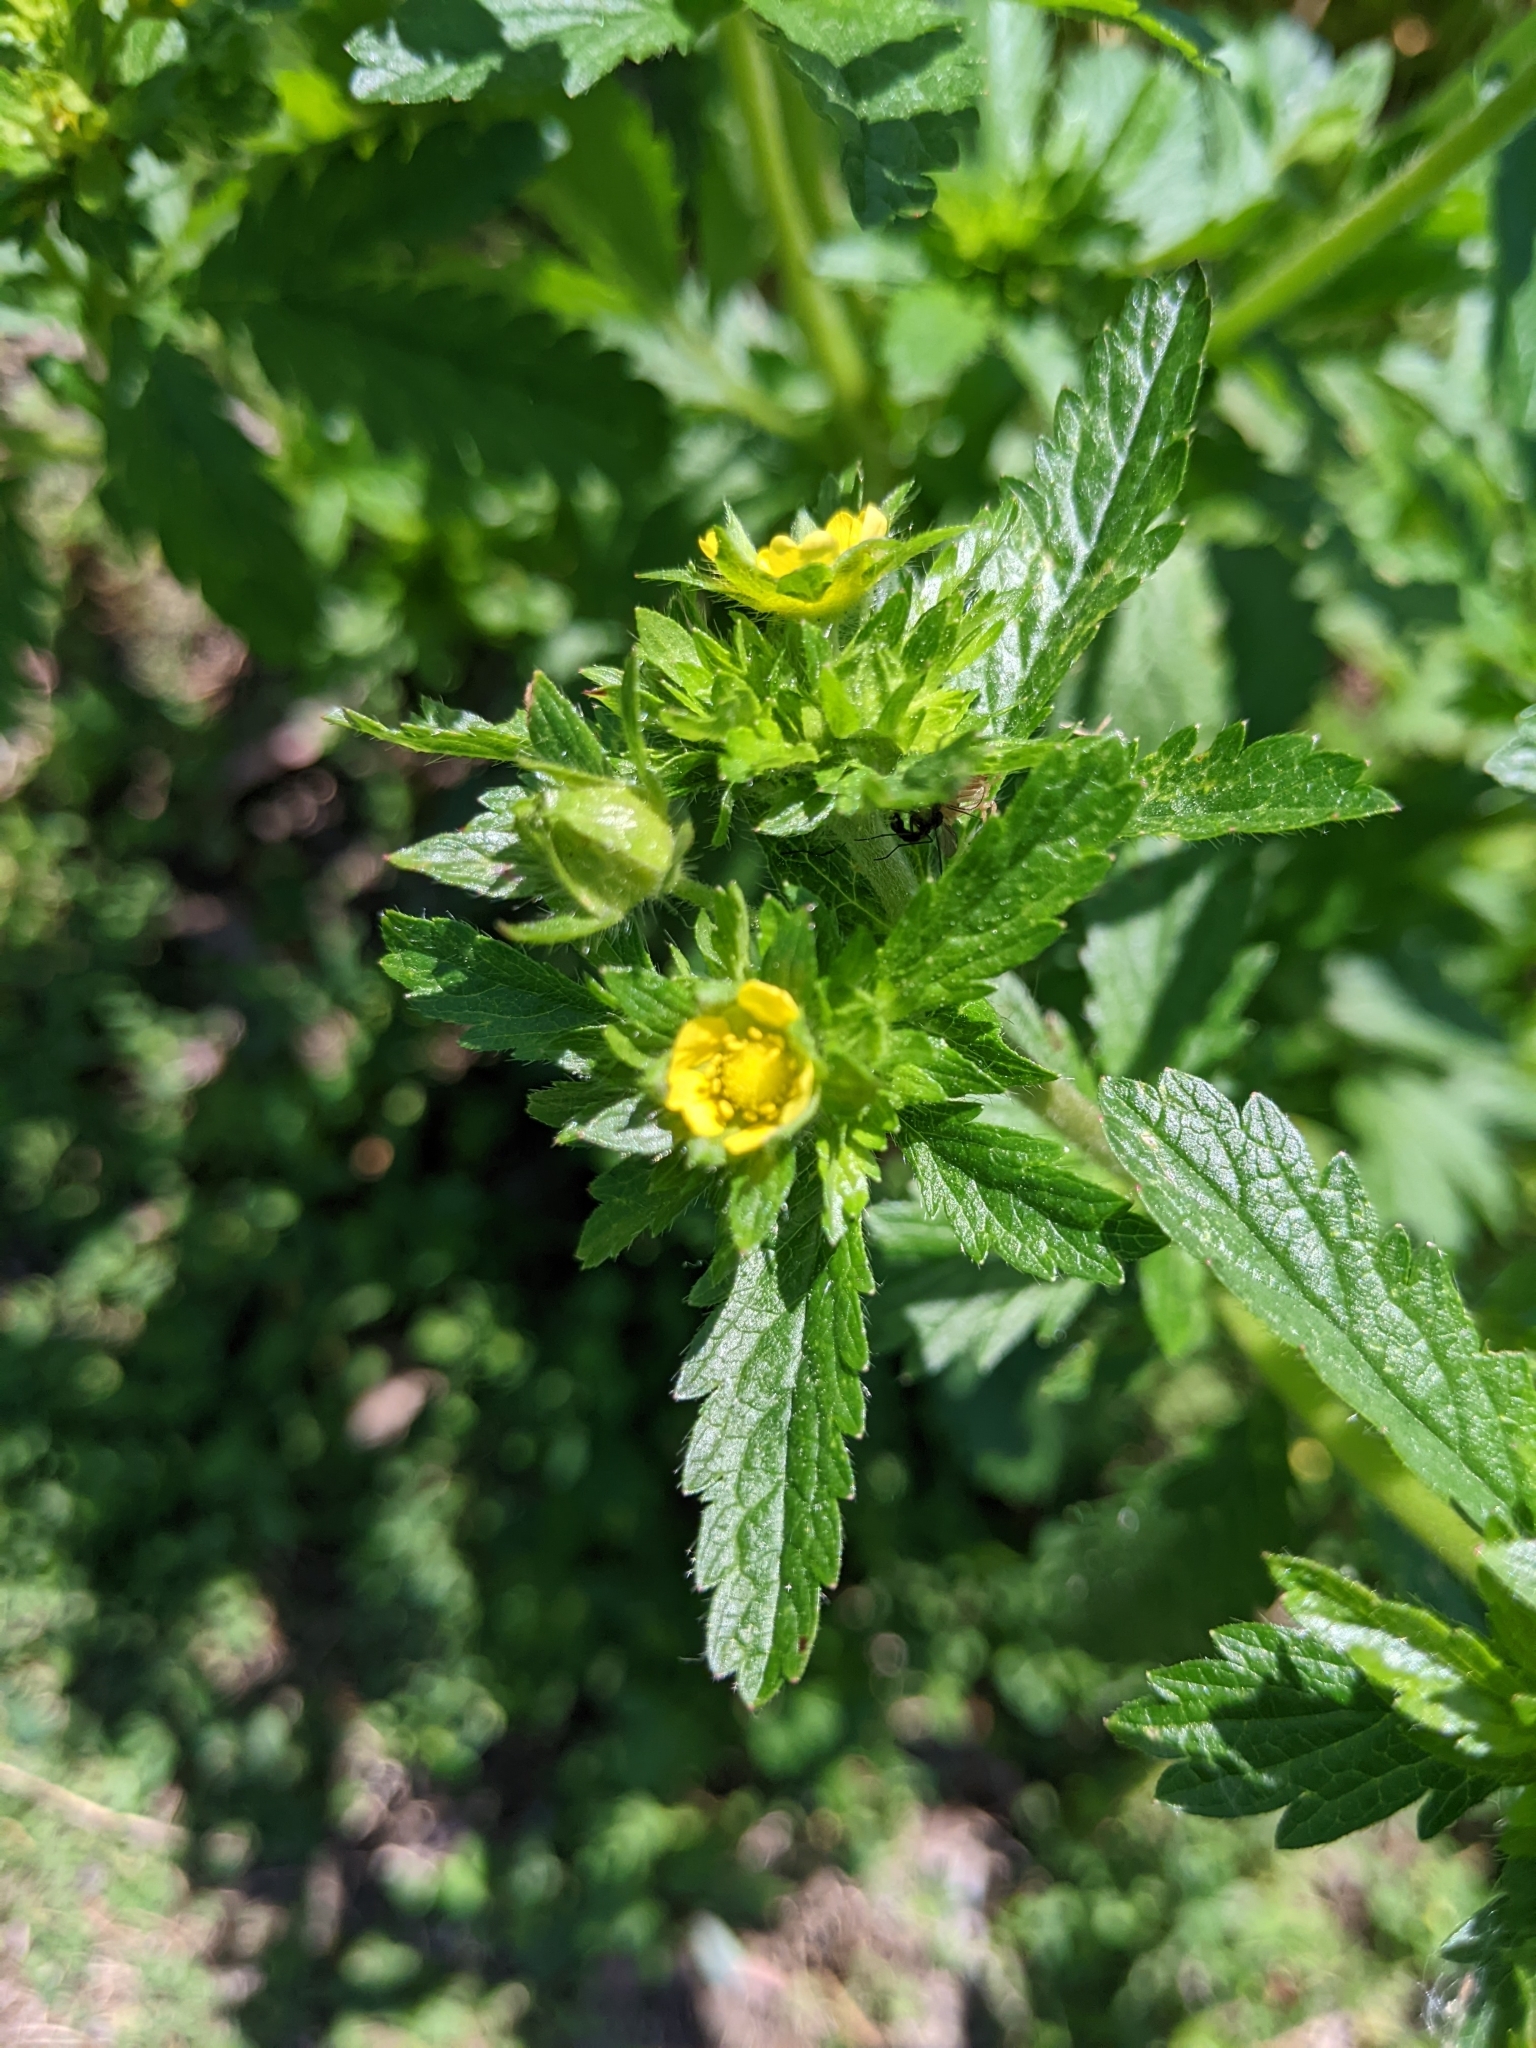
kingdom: Plantae
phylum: Tracheophyta
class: Magnoliopsida
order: Rosales
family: Rosaceae
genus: Potentilla
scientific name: Potentilla norvegica
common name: Ternate-leaved cinquefoil
